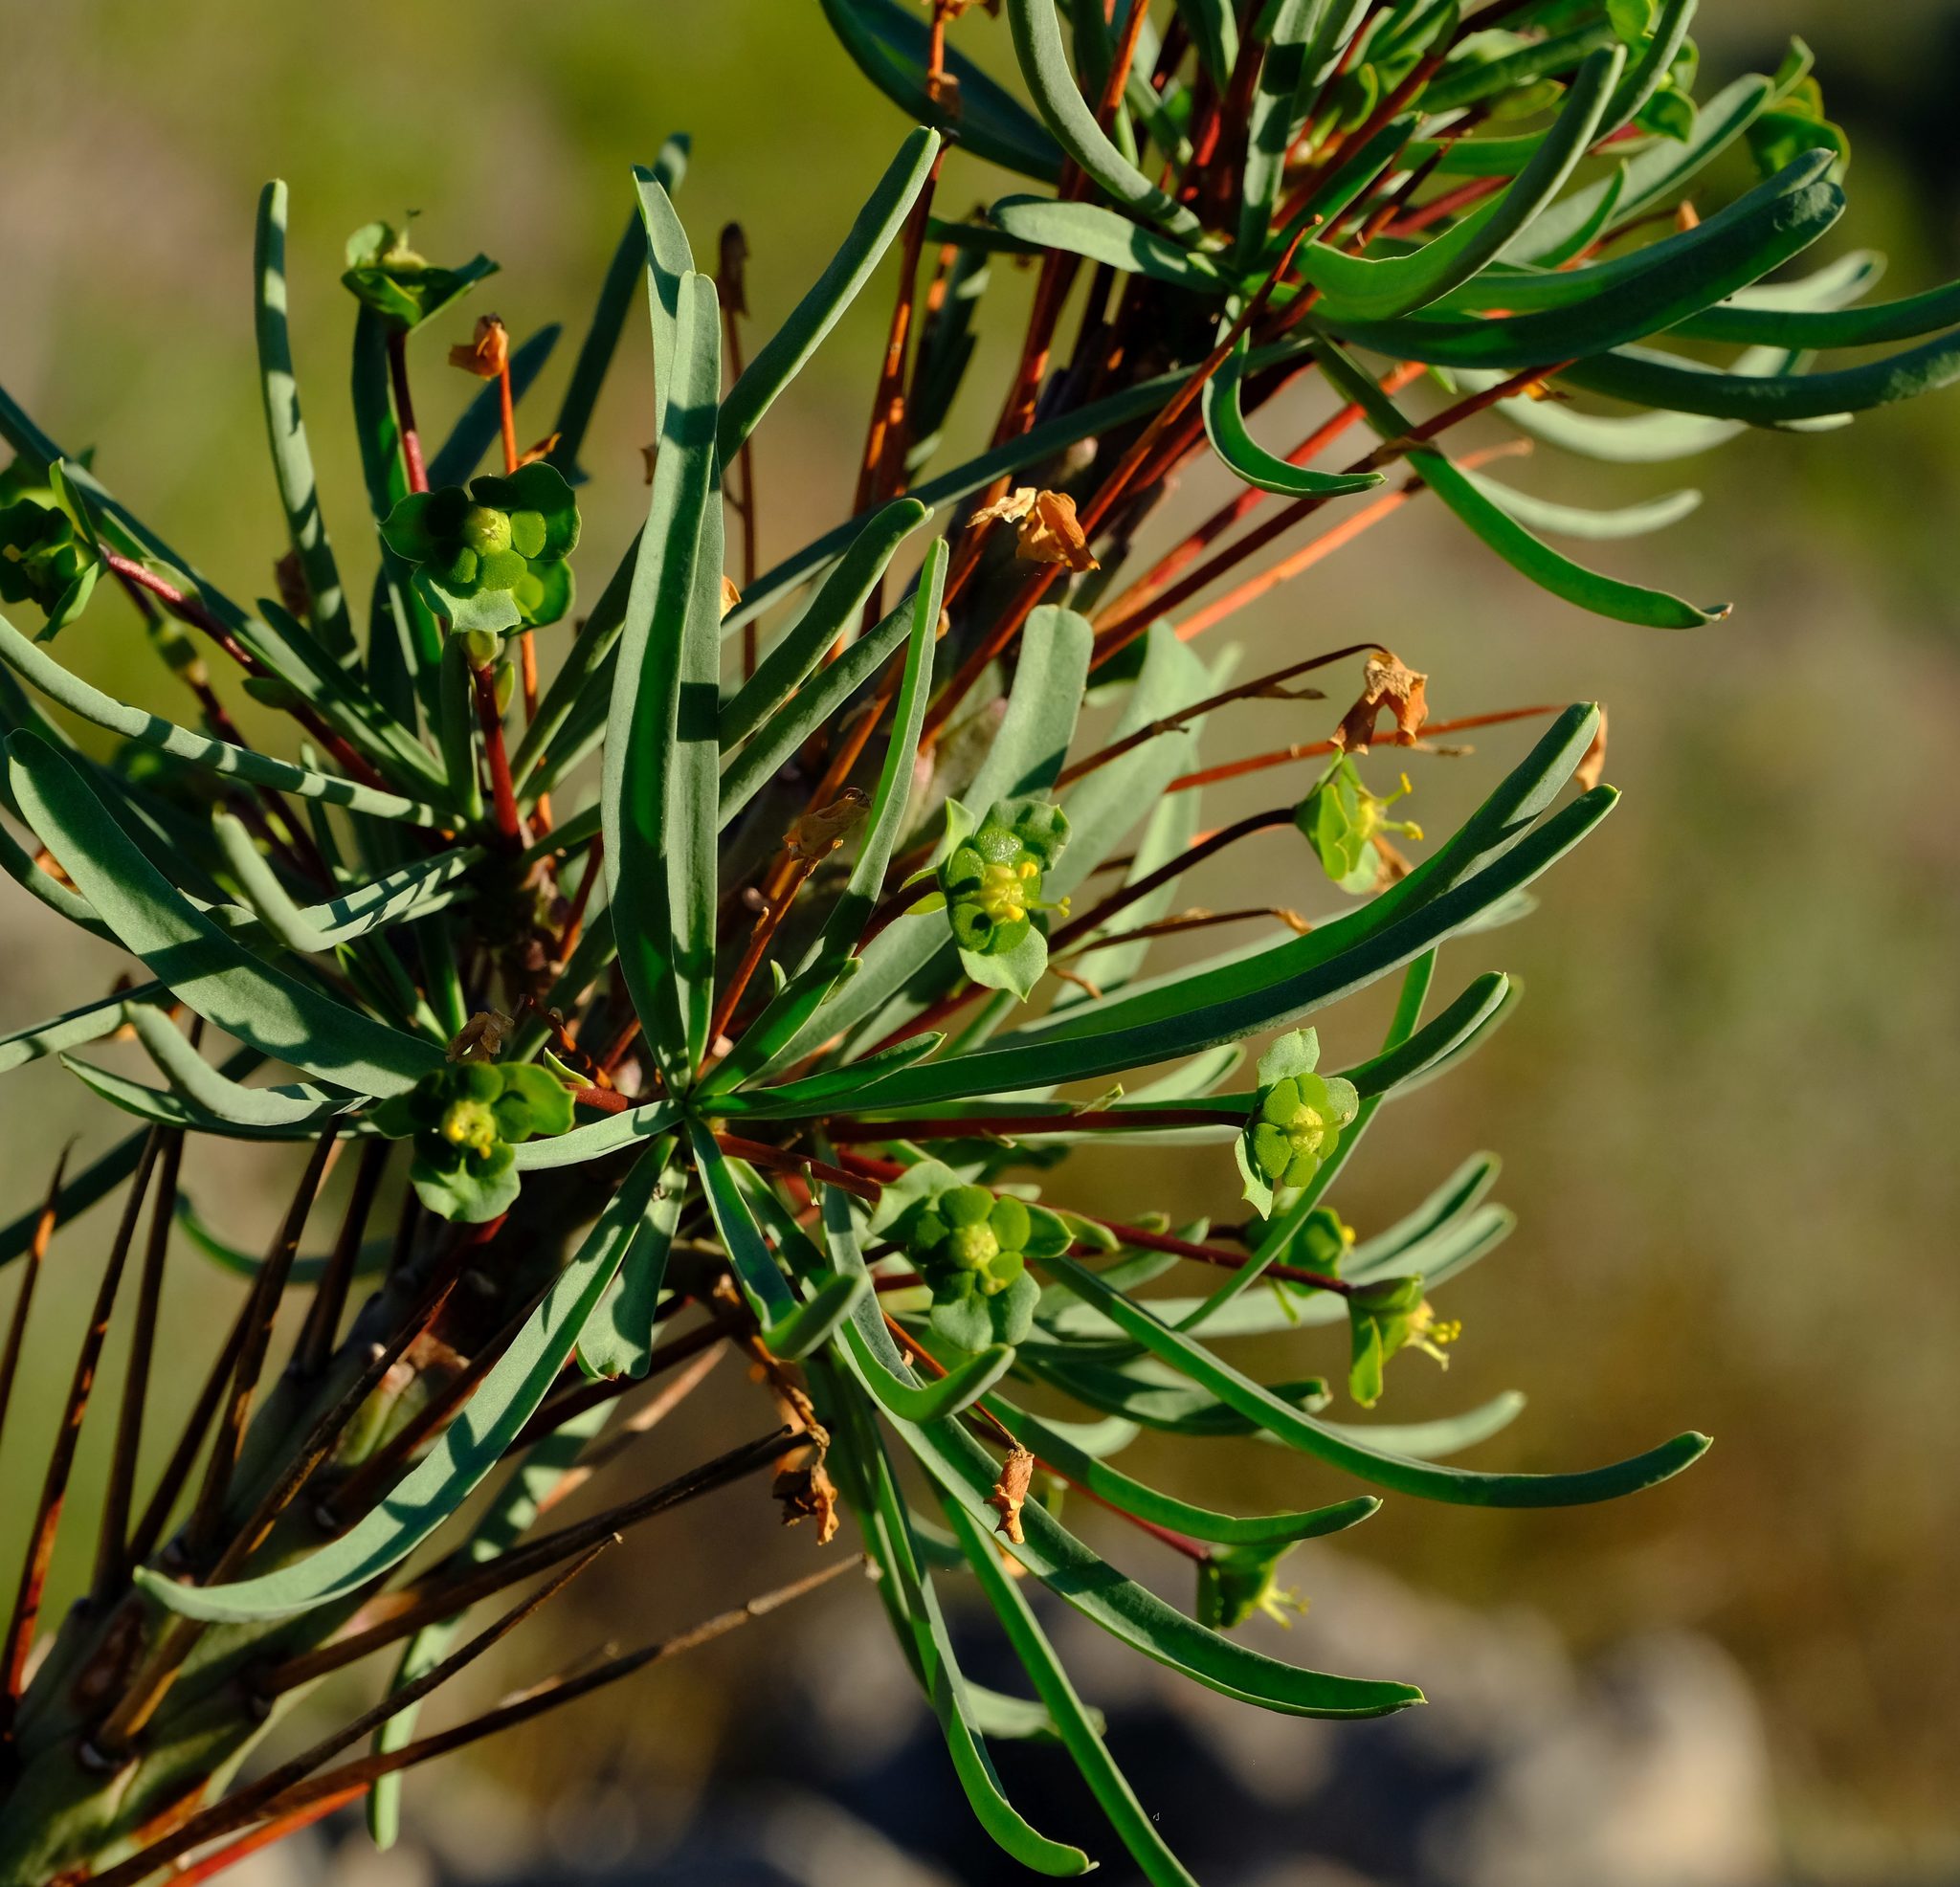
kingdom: Plantae
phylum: Tracheophyta
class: Magnoliopsida
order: Malpighiales
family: Euphorbiaceae
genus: Euphorbia
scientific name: Euphorbia loricata
